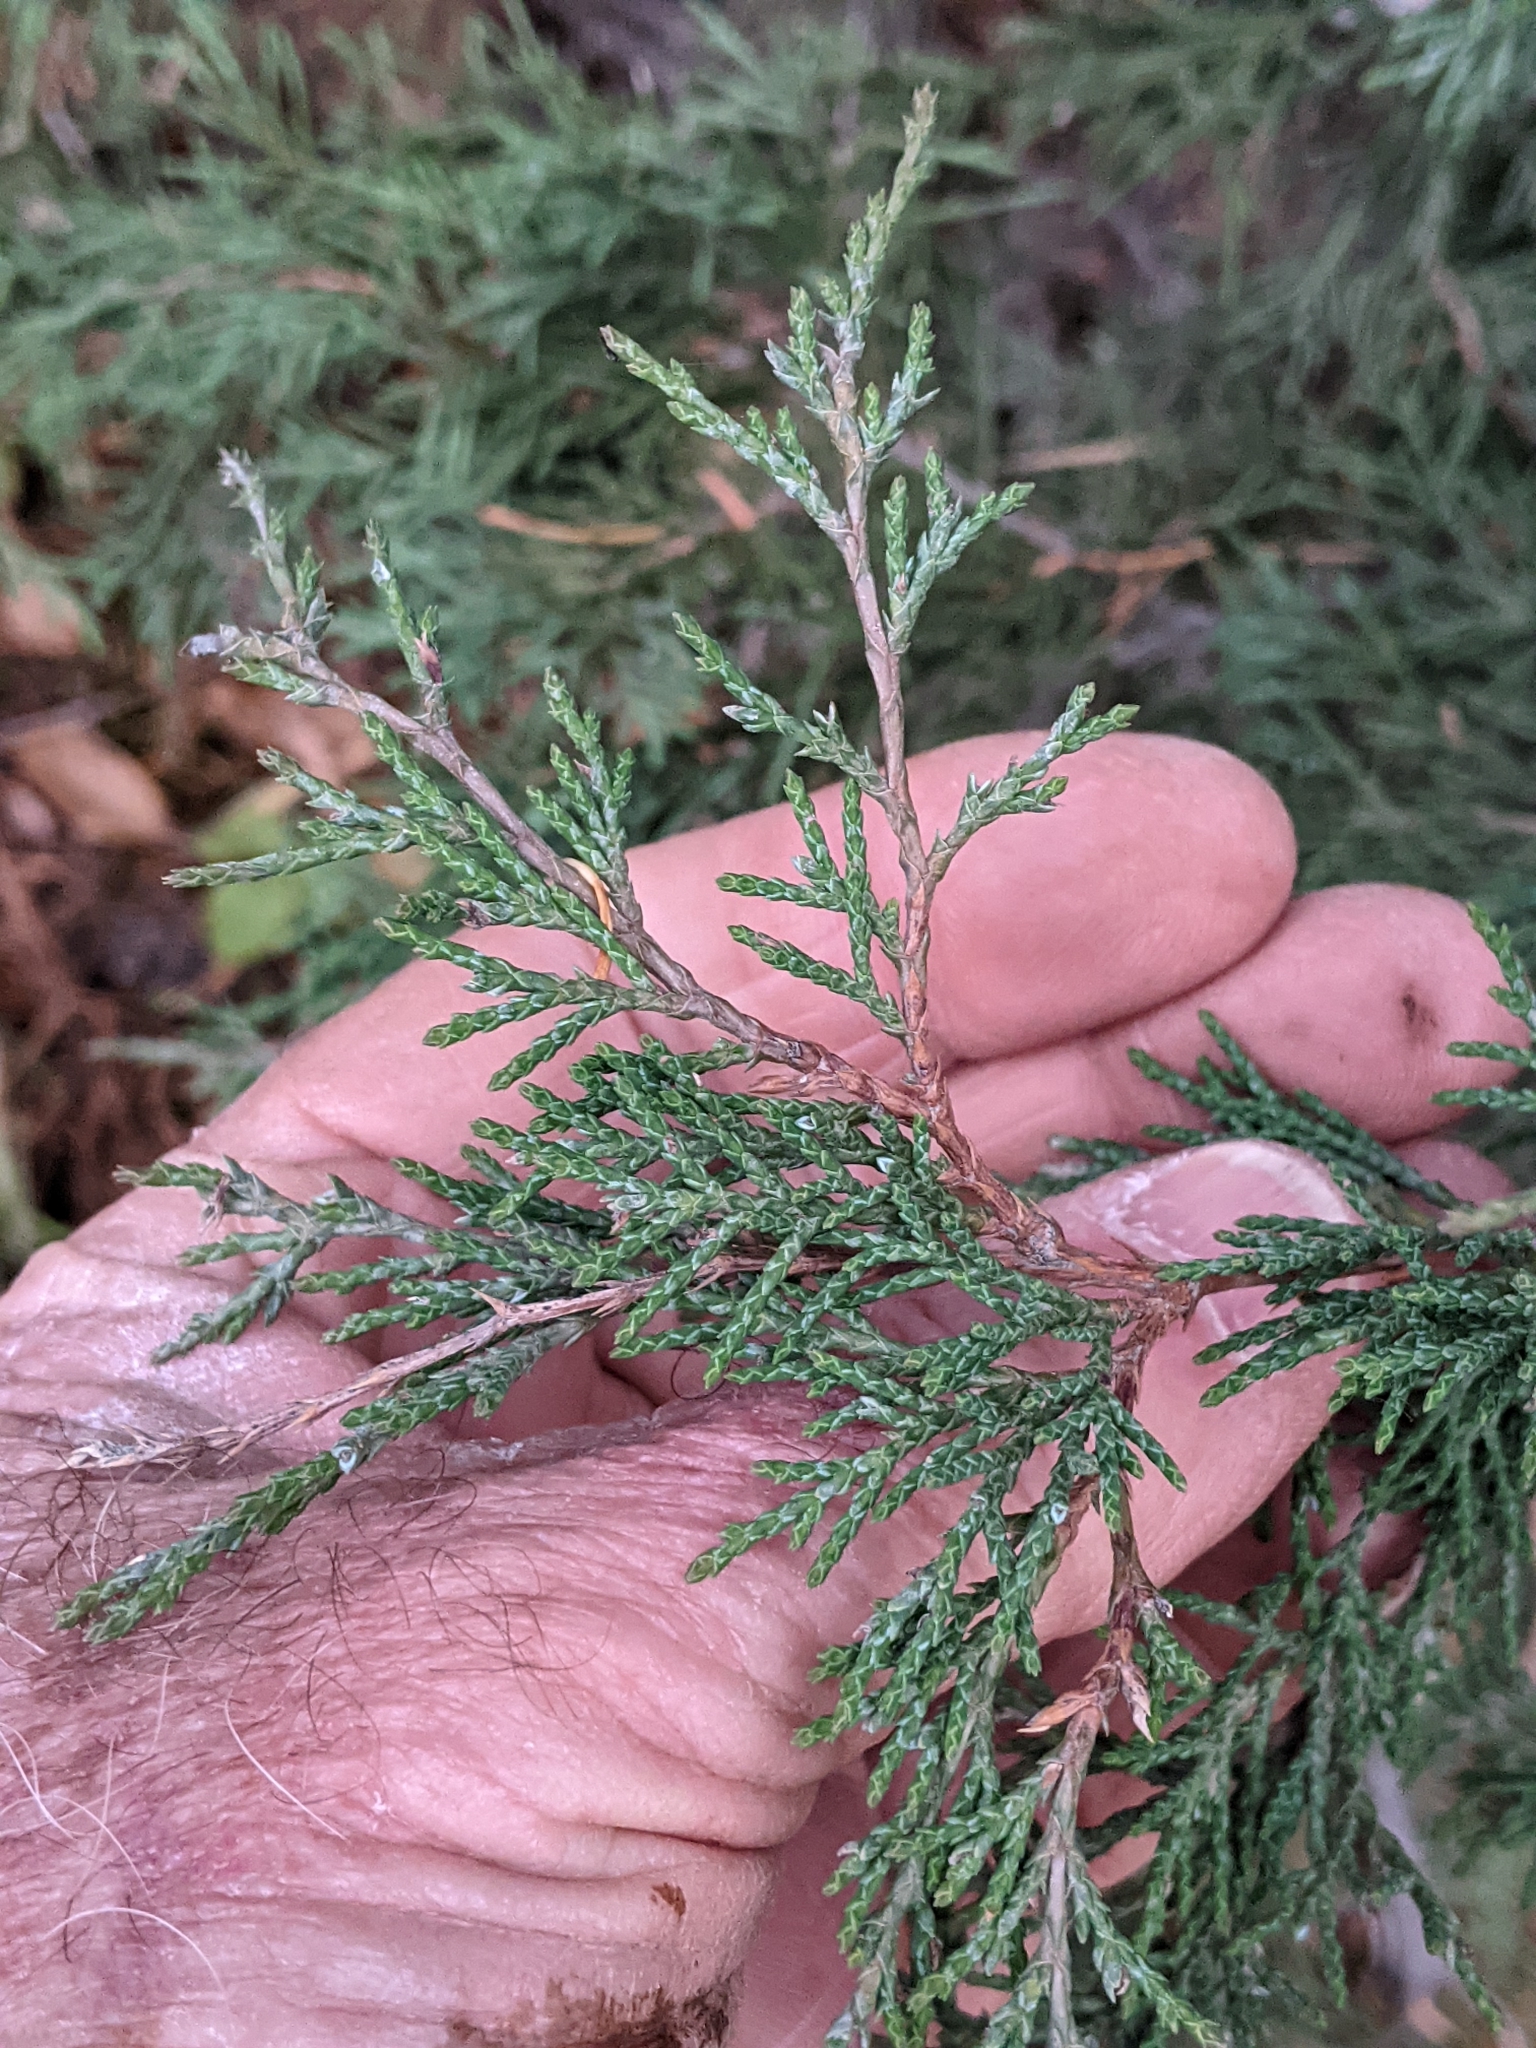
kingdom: Plantae
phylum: Tracheophyta
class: Pinopsida
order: Pinales
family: Cupressaceae
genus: Juniperus
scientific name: Juniperus scopulorum
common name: Rocky mountain juniper
